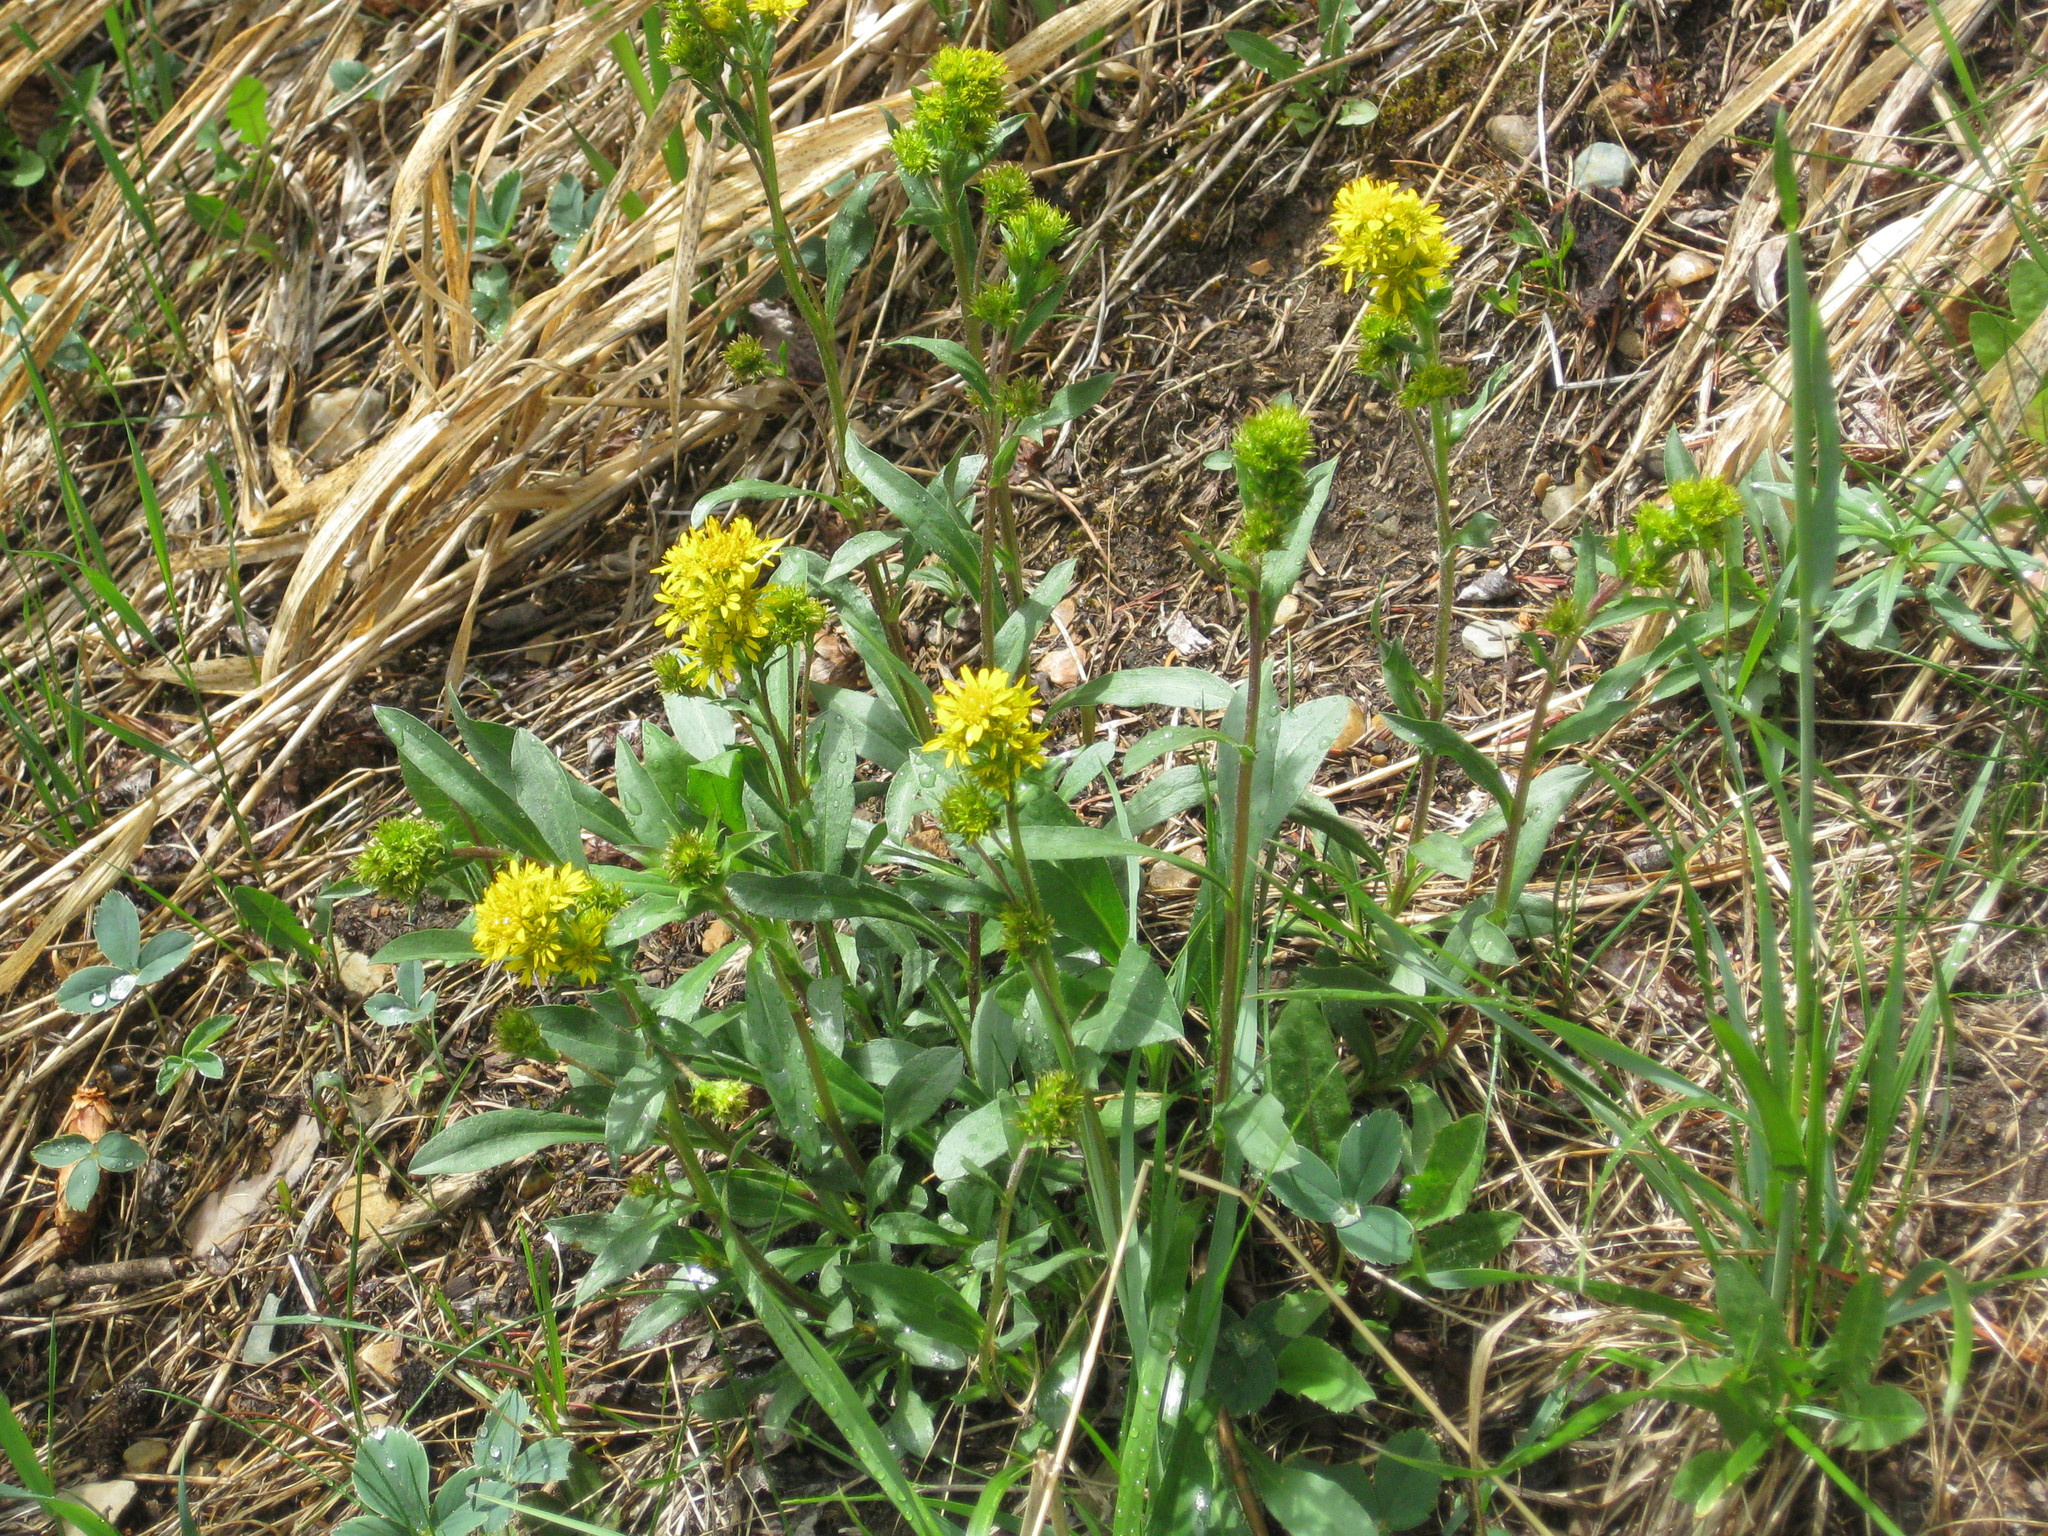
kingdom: Plantae
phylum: Tracheophyta
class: Magnoliopsida
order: Asterales
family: Asteraceae
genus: Solidago
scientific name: Solidago multiradiata
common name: Northern goldenrod
